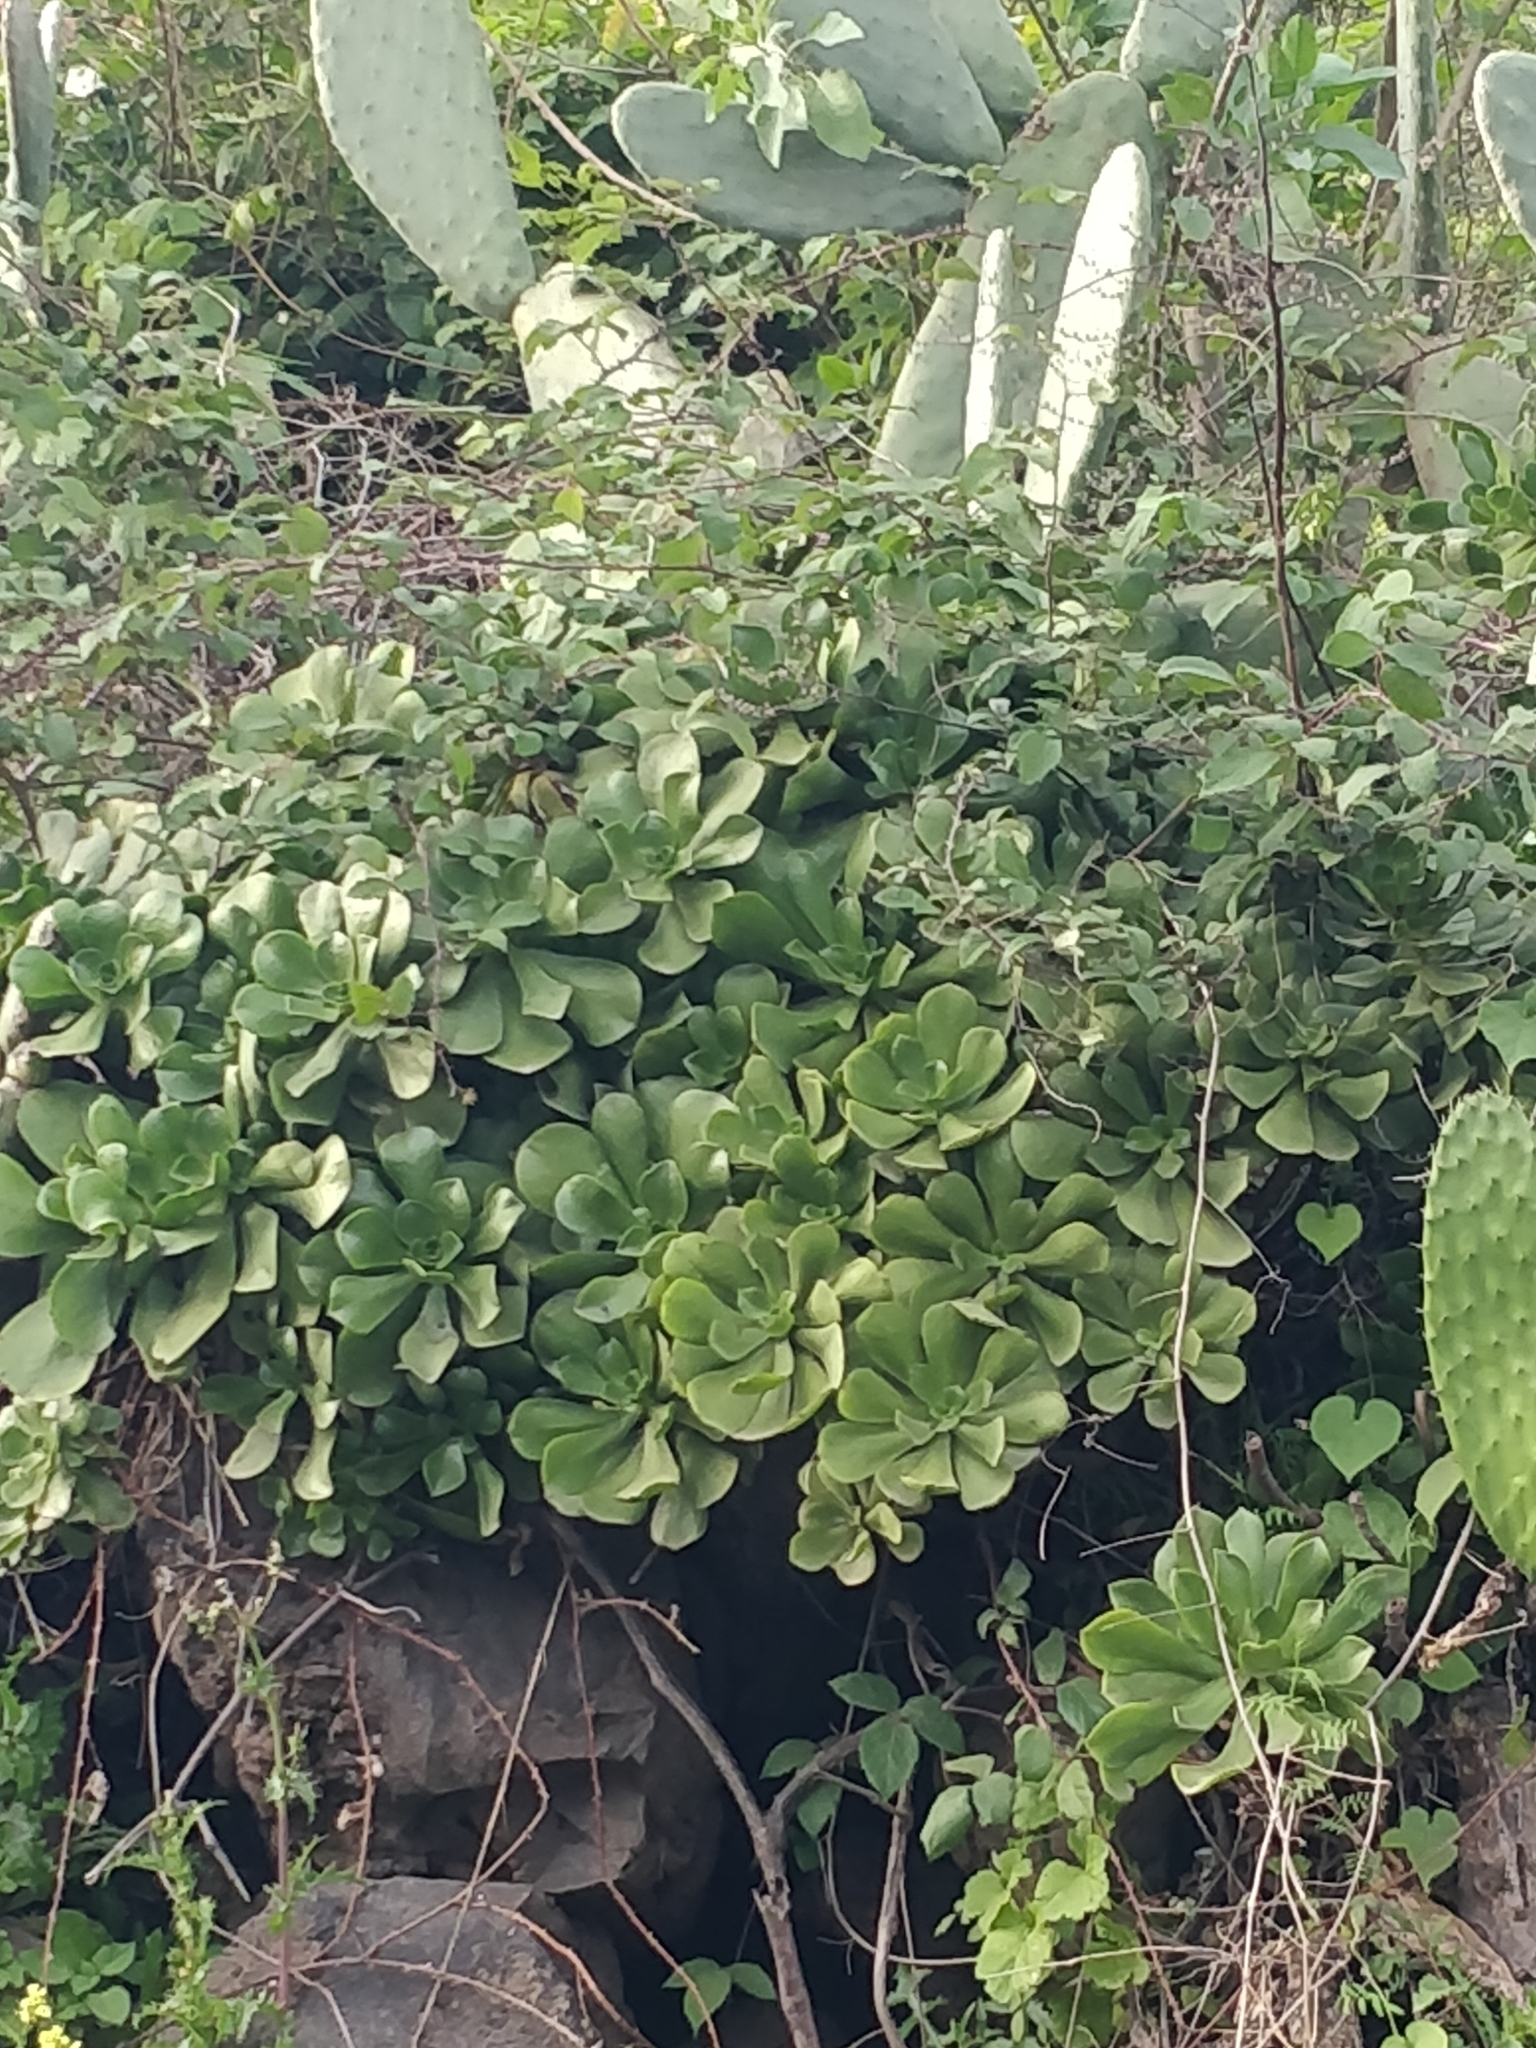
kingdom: Plantae
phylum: Tracheophyta
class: Magnoliopsida
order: Saxifragales
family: Crassulaceae
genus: Aeonium
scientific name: Aeonium glutinosum
